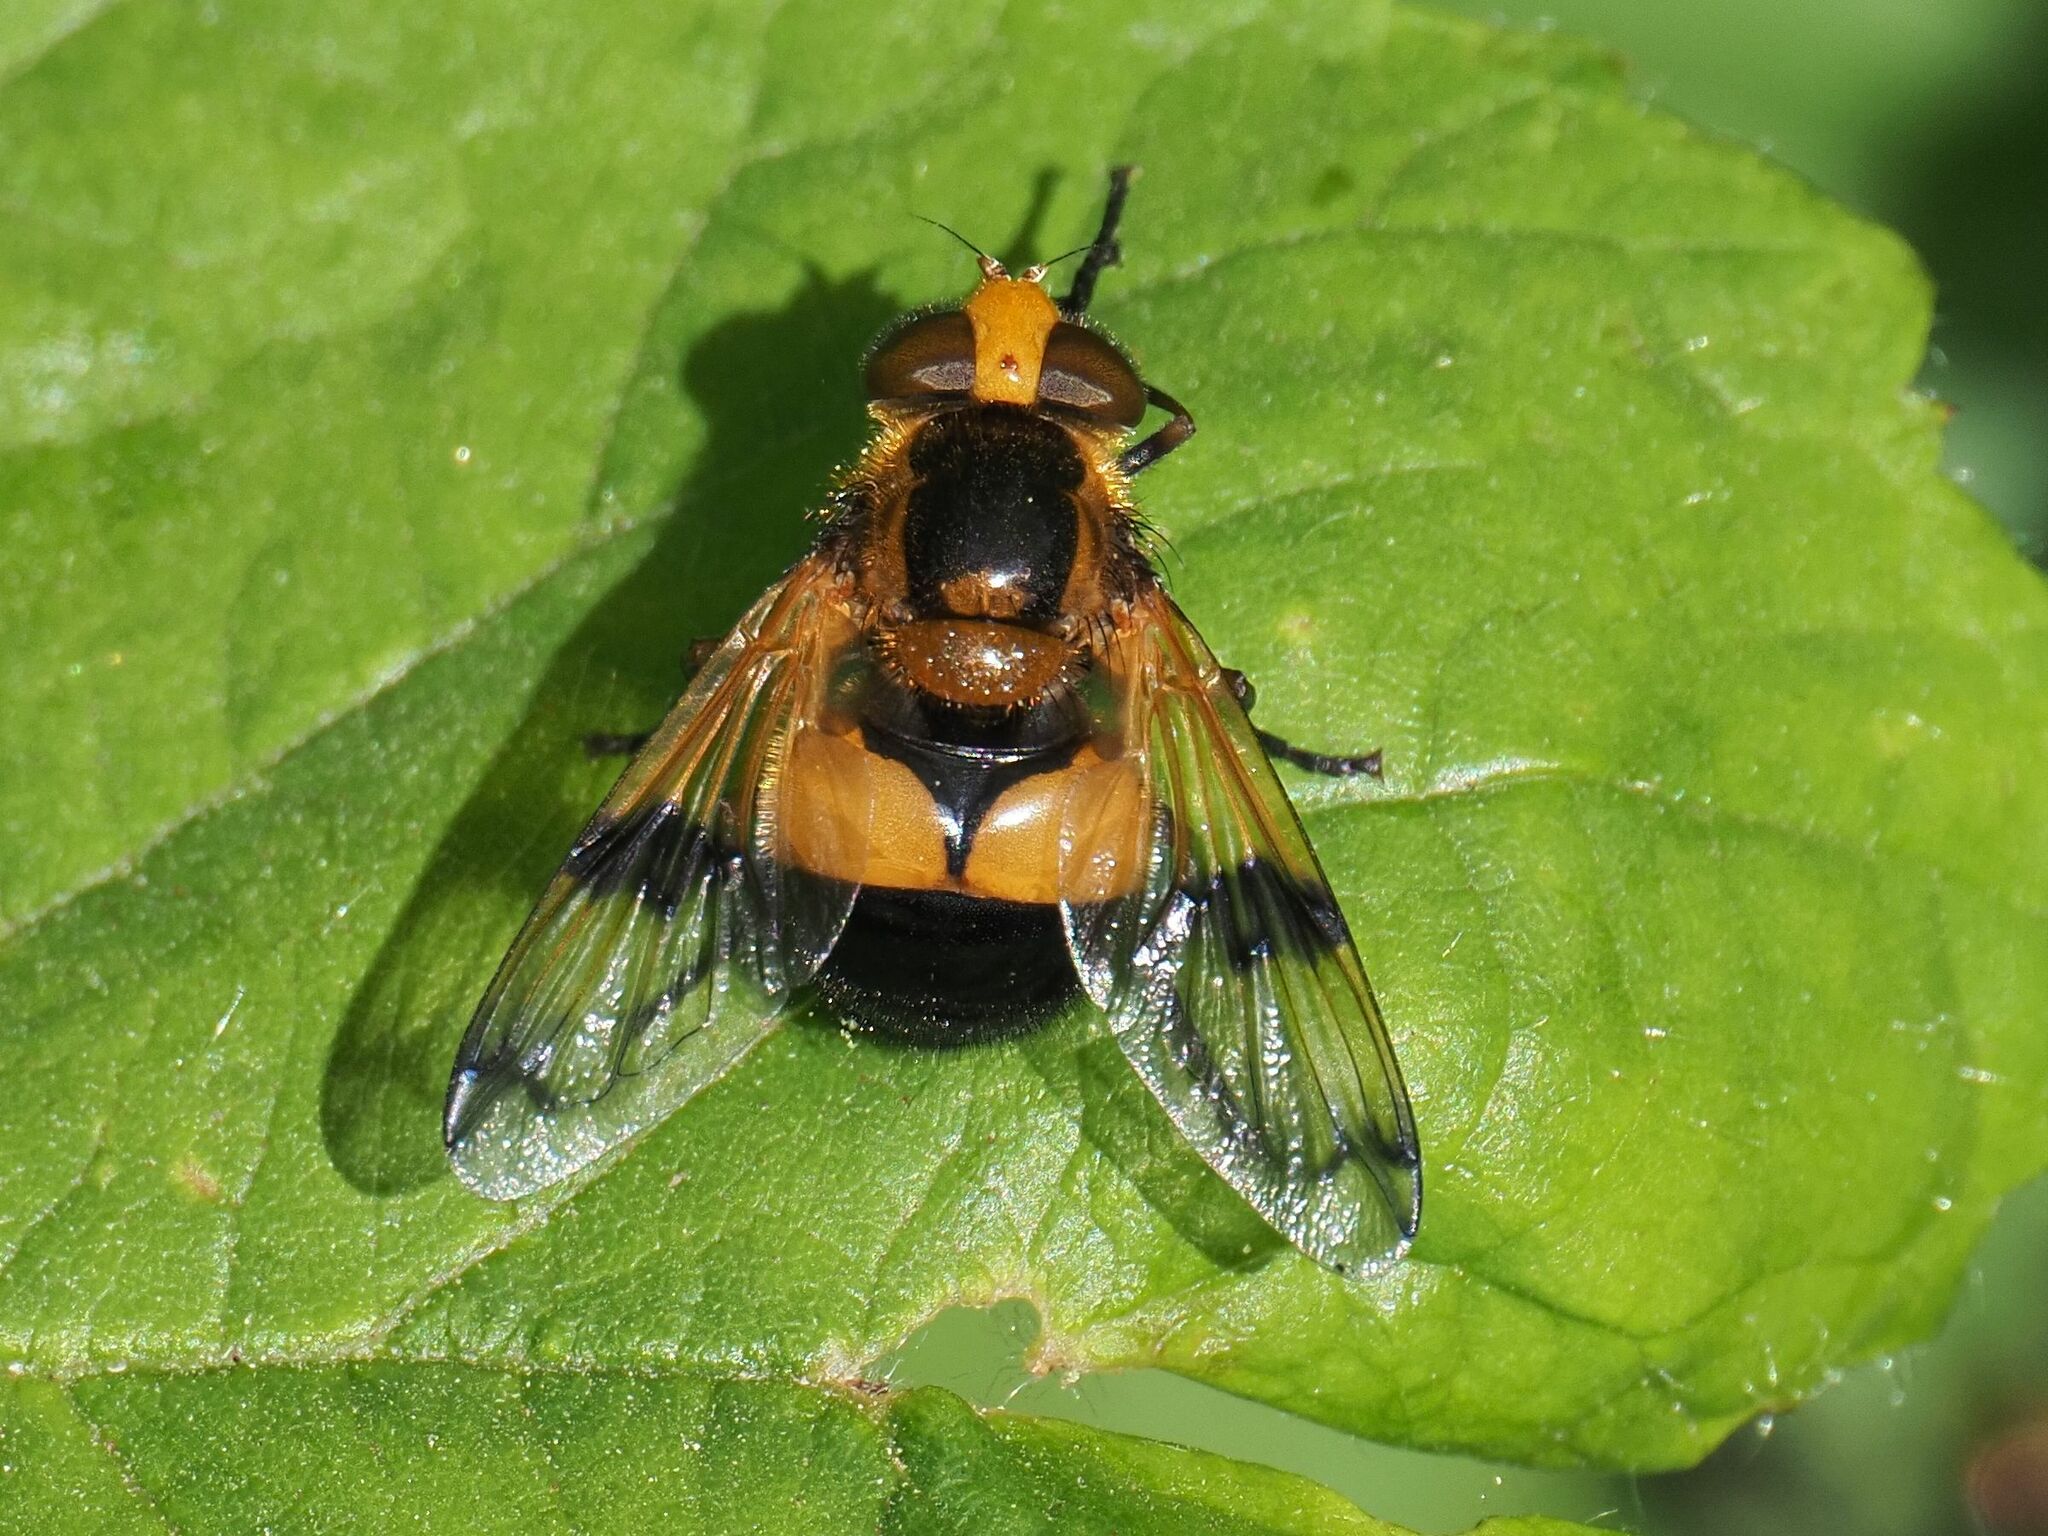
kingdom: Animalia
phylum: Arthropoda
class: Insecta
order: Diptera
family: Syrphidae
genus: Volucella
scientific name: Volucella inflata
